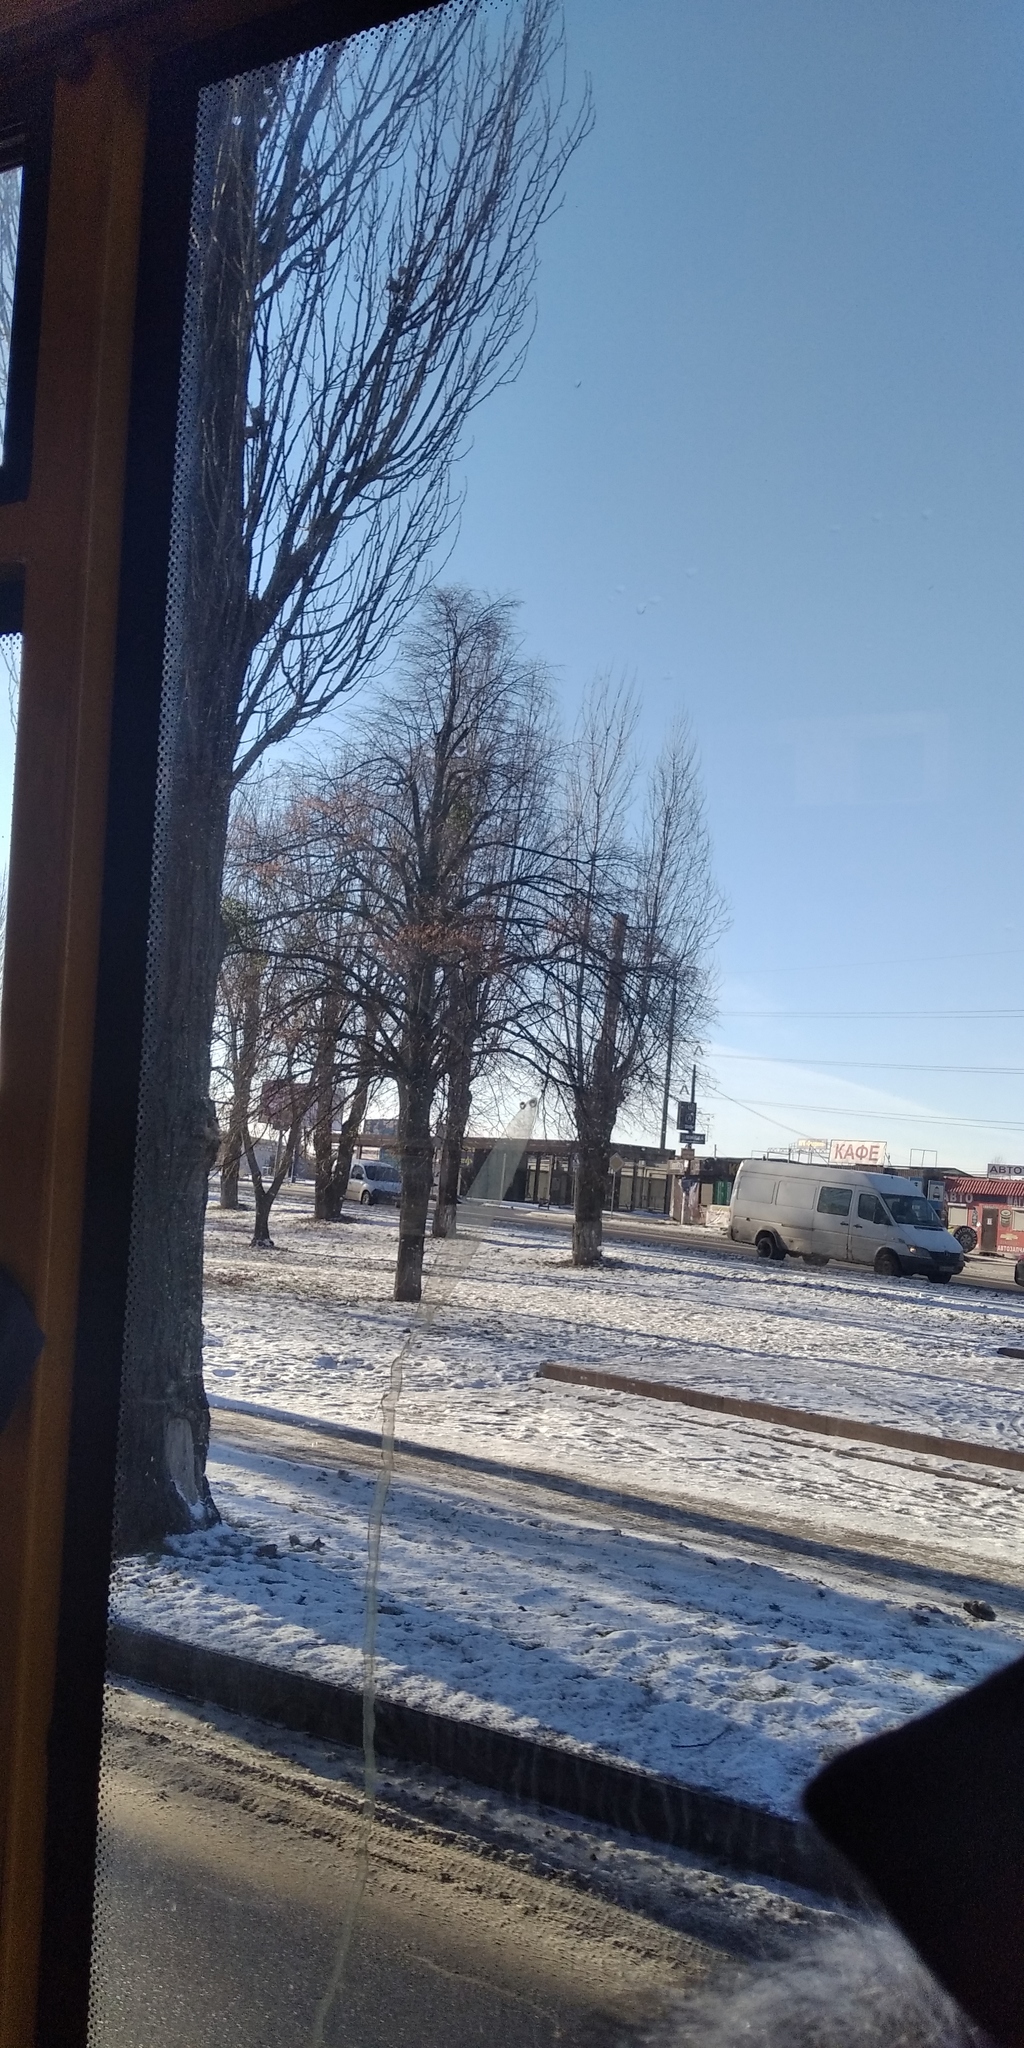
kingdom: Plantae
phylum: Tracheophyta
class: Magnoliopsida
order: Santalales
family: Viscaceae
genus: Viscum
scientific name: Viscum album
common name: Mistletoe
